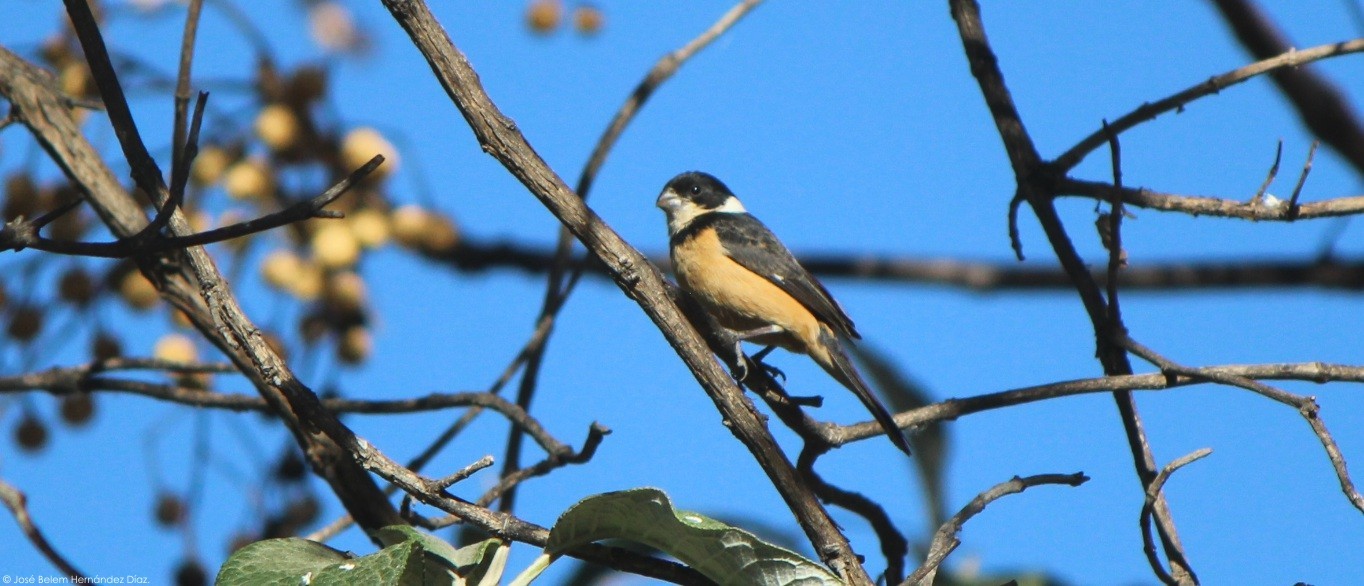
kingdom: Animalia
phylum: Chordata
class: Aves
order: Passeriformes
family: Thraupidae
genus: Sporophila
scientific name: Sporophila torqueola
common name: White-collared seedeater
